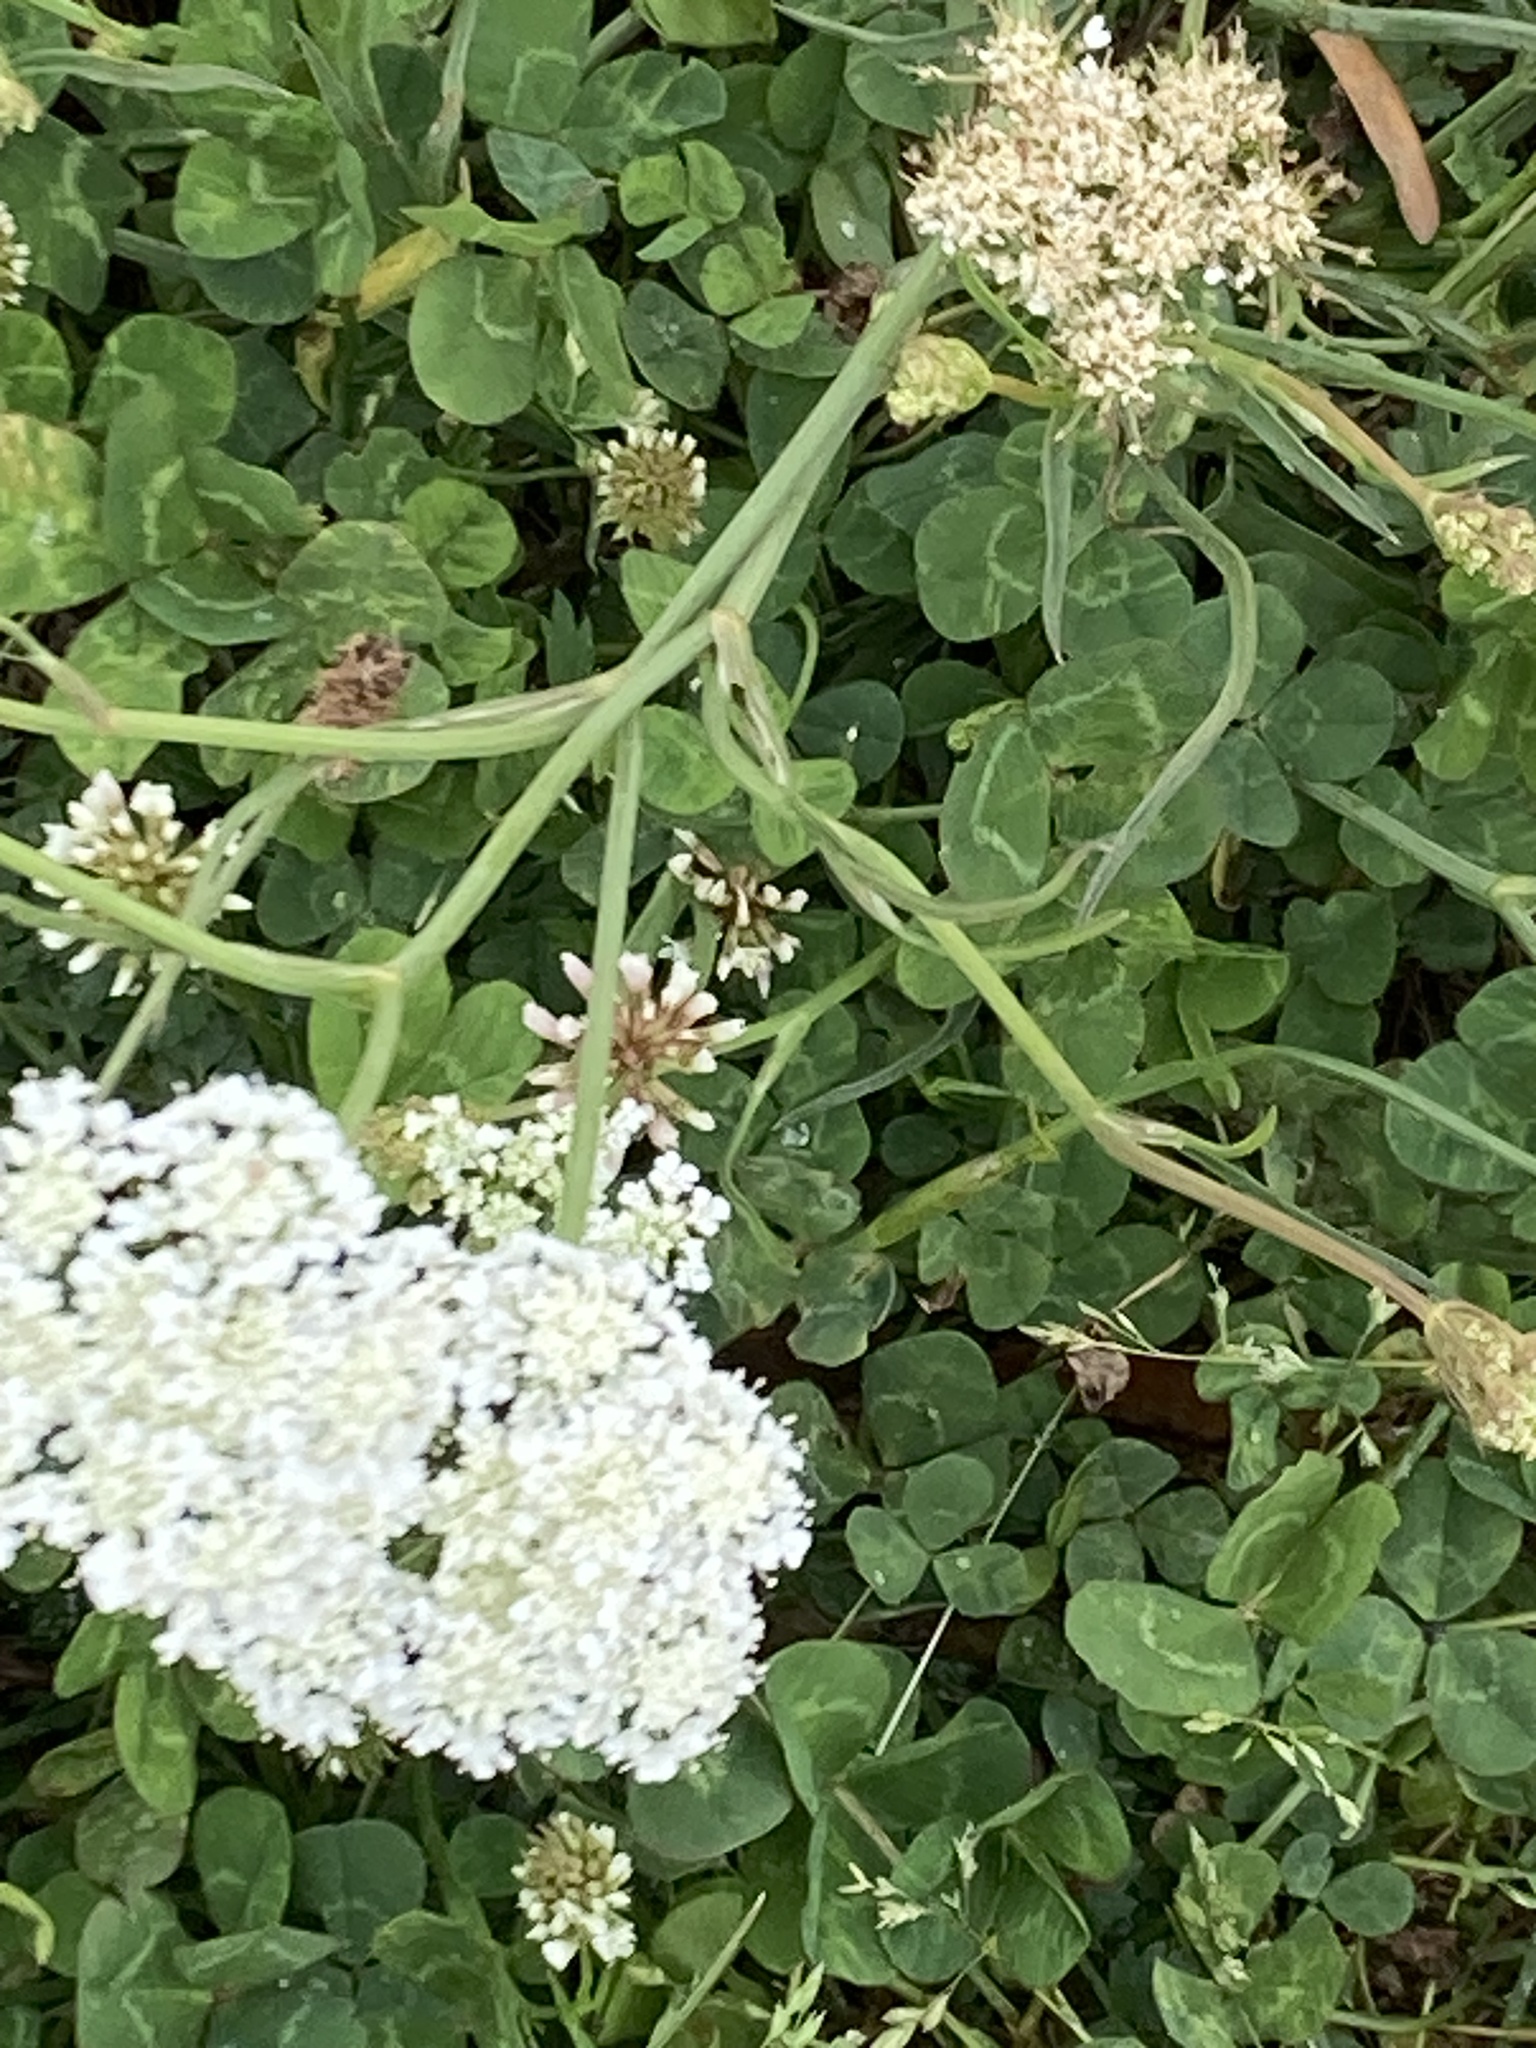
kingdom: Plantae
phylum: Tracheophyta
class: Magnoliopsida
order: Apiales
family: Apiaceae
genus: Daucus
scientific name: Daucus carota
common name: Wild carrot
